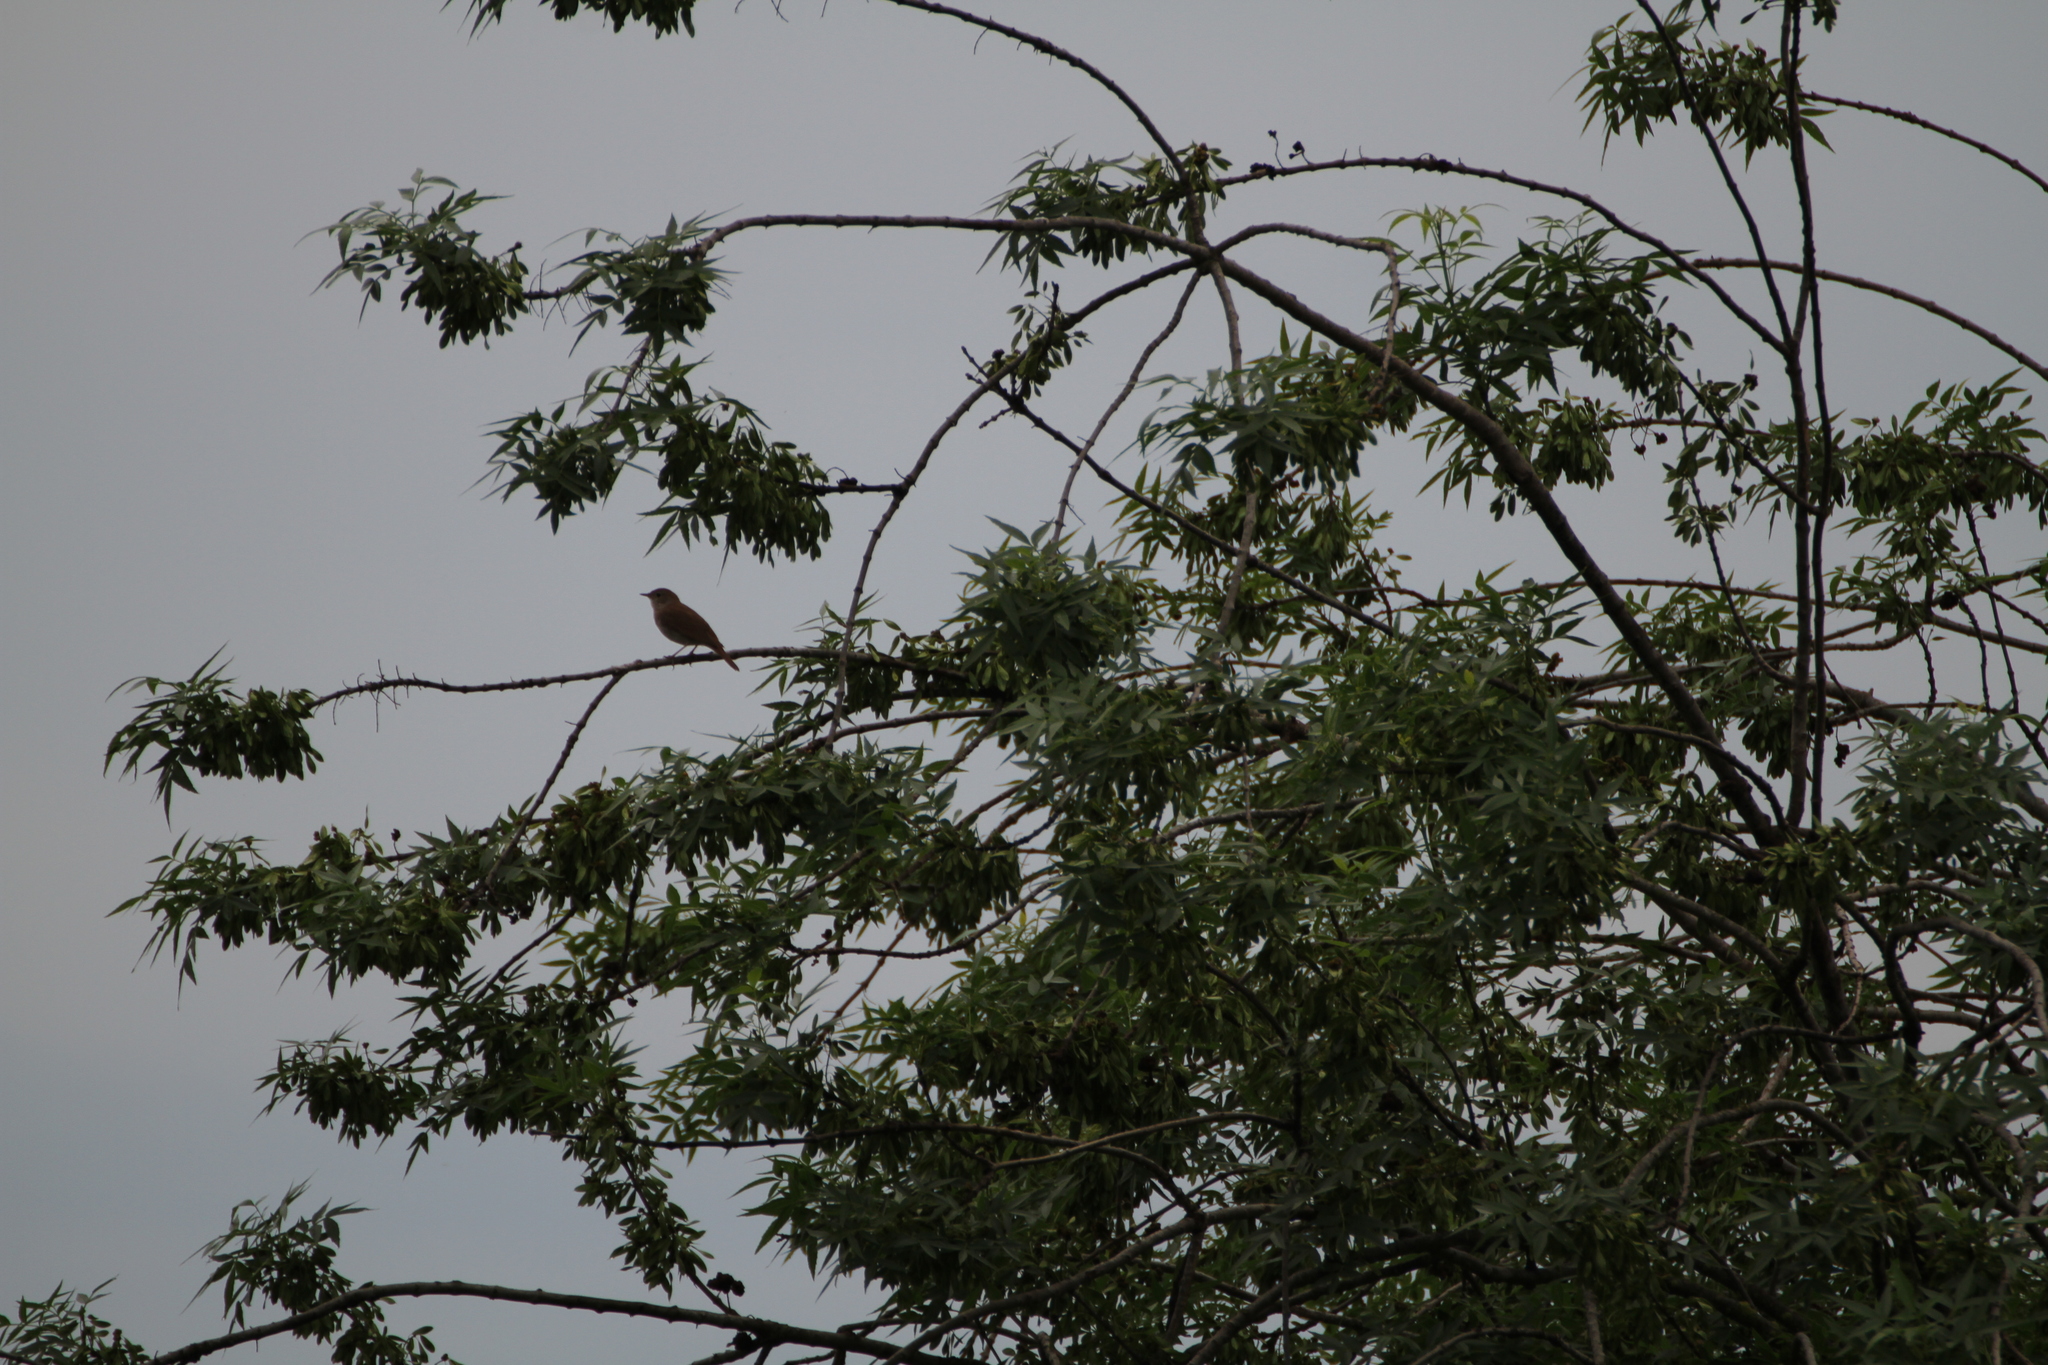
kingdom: Animalia
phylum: Chordata
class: Aves
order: Passeriformes
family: Muscicapidae
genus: Luscinia
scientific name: Luscinia megarhynchos
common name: Common nightingale
